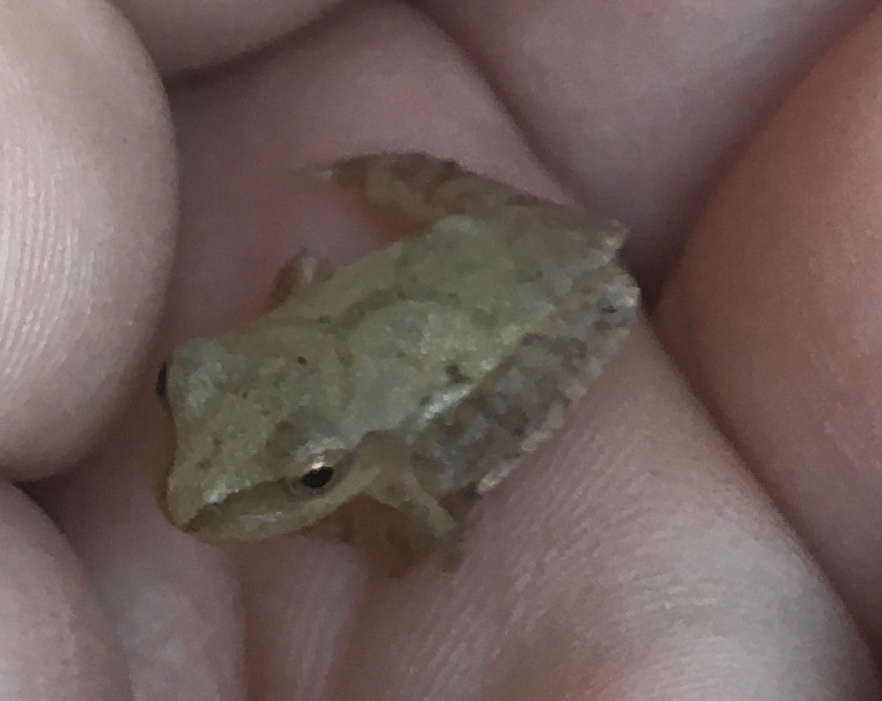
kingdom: Animalia
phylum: Chordata
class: Amphibia
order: Anura
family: Hylidae
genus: Pseudacris
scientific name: Pseudacris crucifer
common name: Spring peeper
